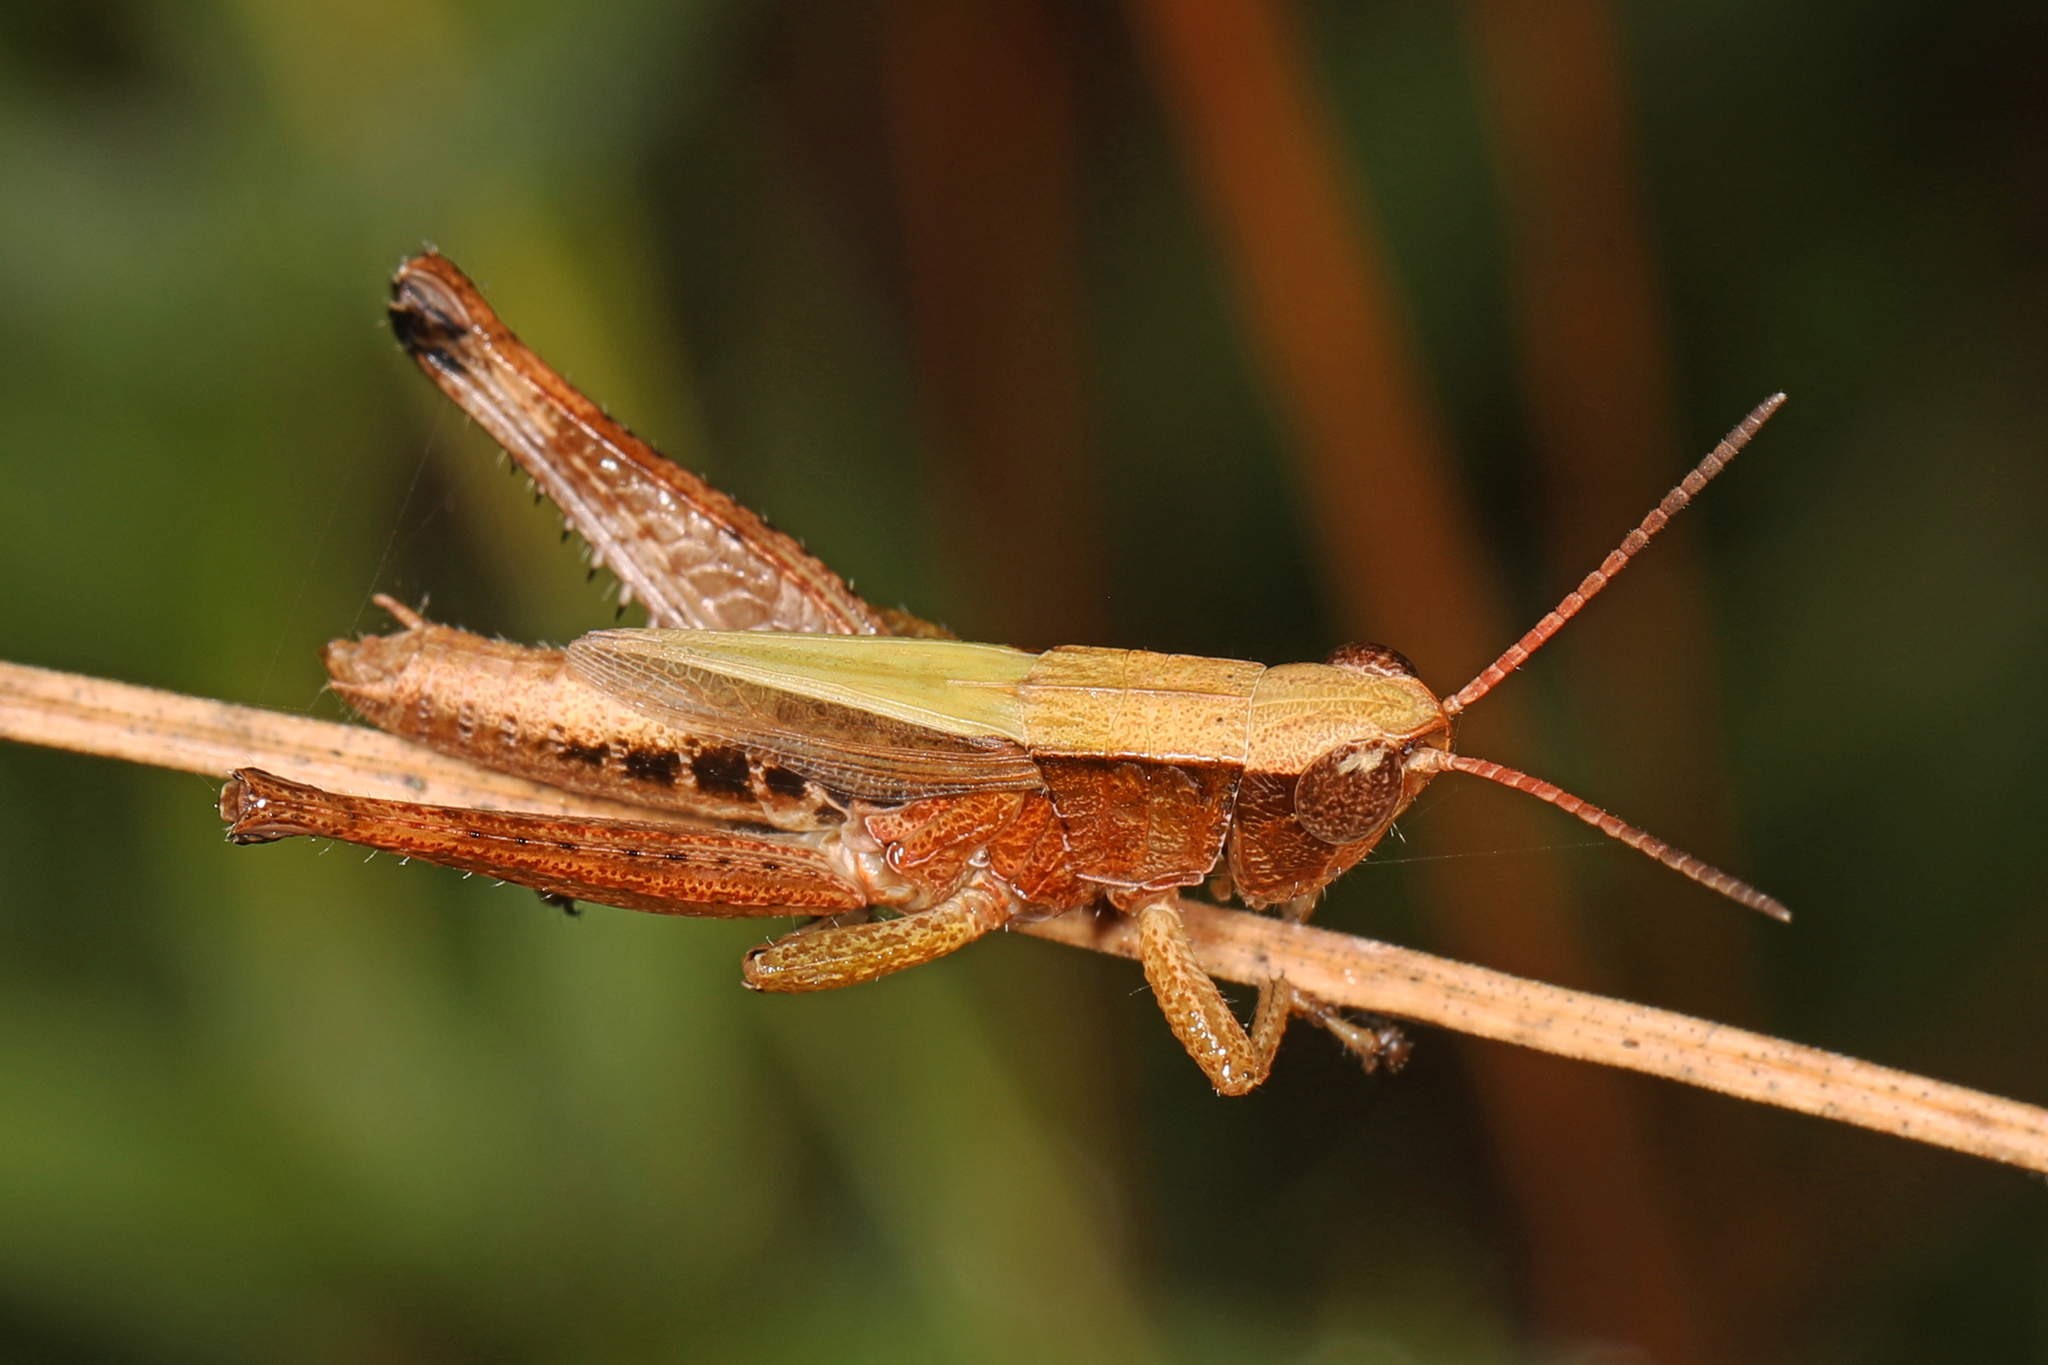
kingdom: Animalia
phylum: Arthropoda
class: Insecta
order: Orthoptera
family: Acrididae
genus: Dichromorpha
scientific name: Dichromorpha viridis
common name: Short-winged green grasshopper
